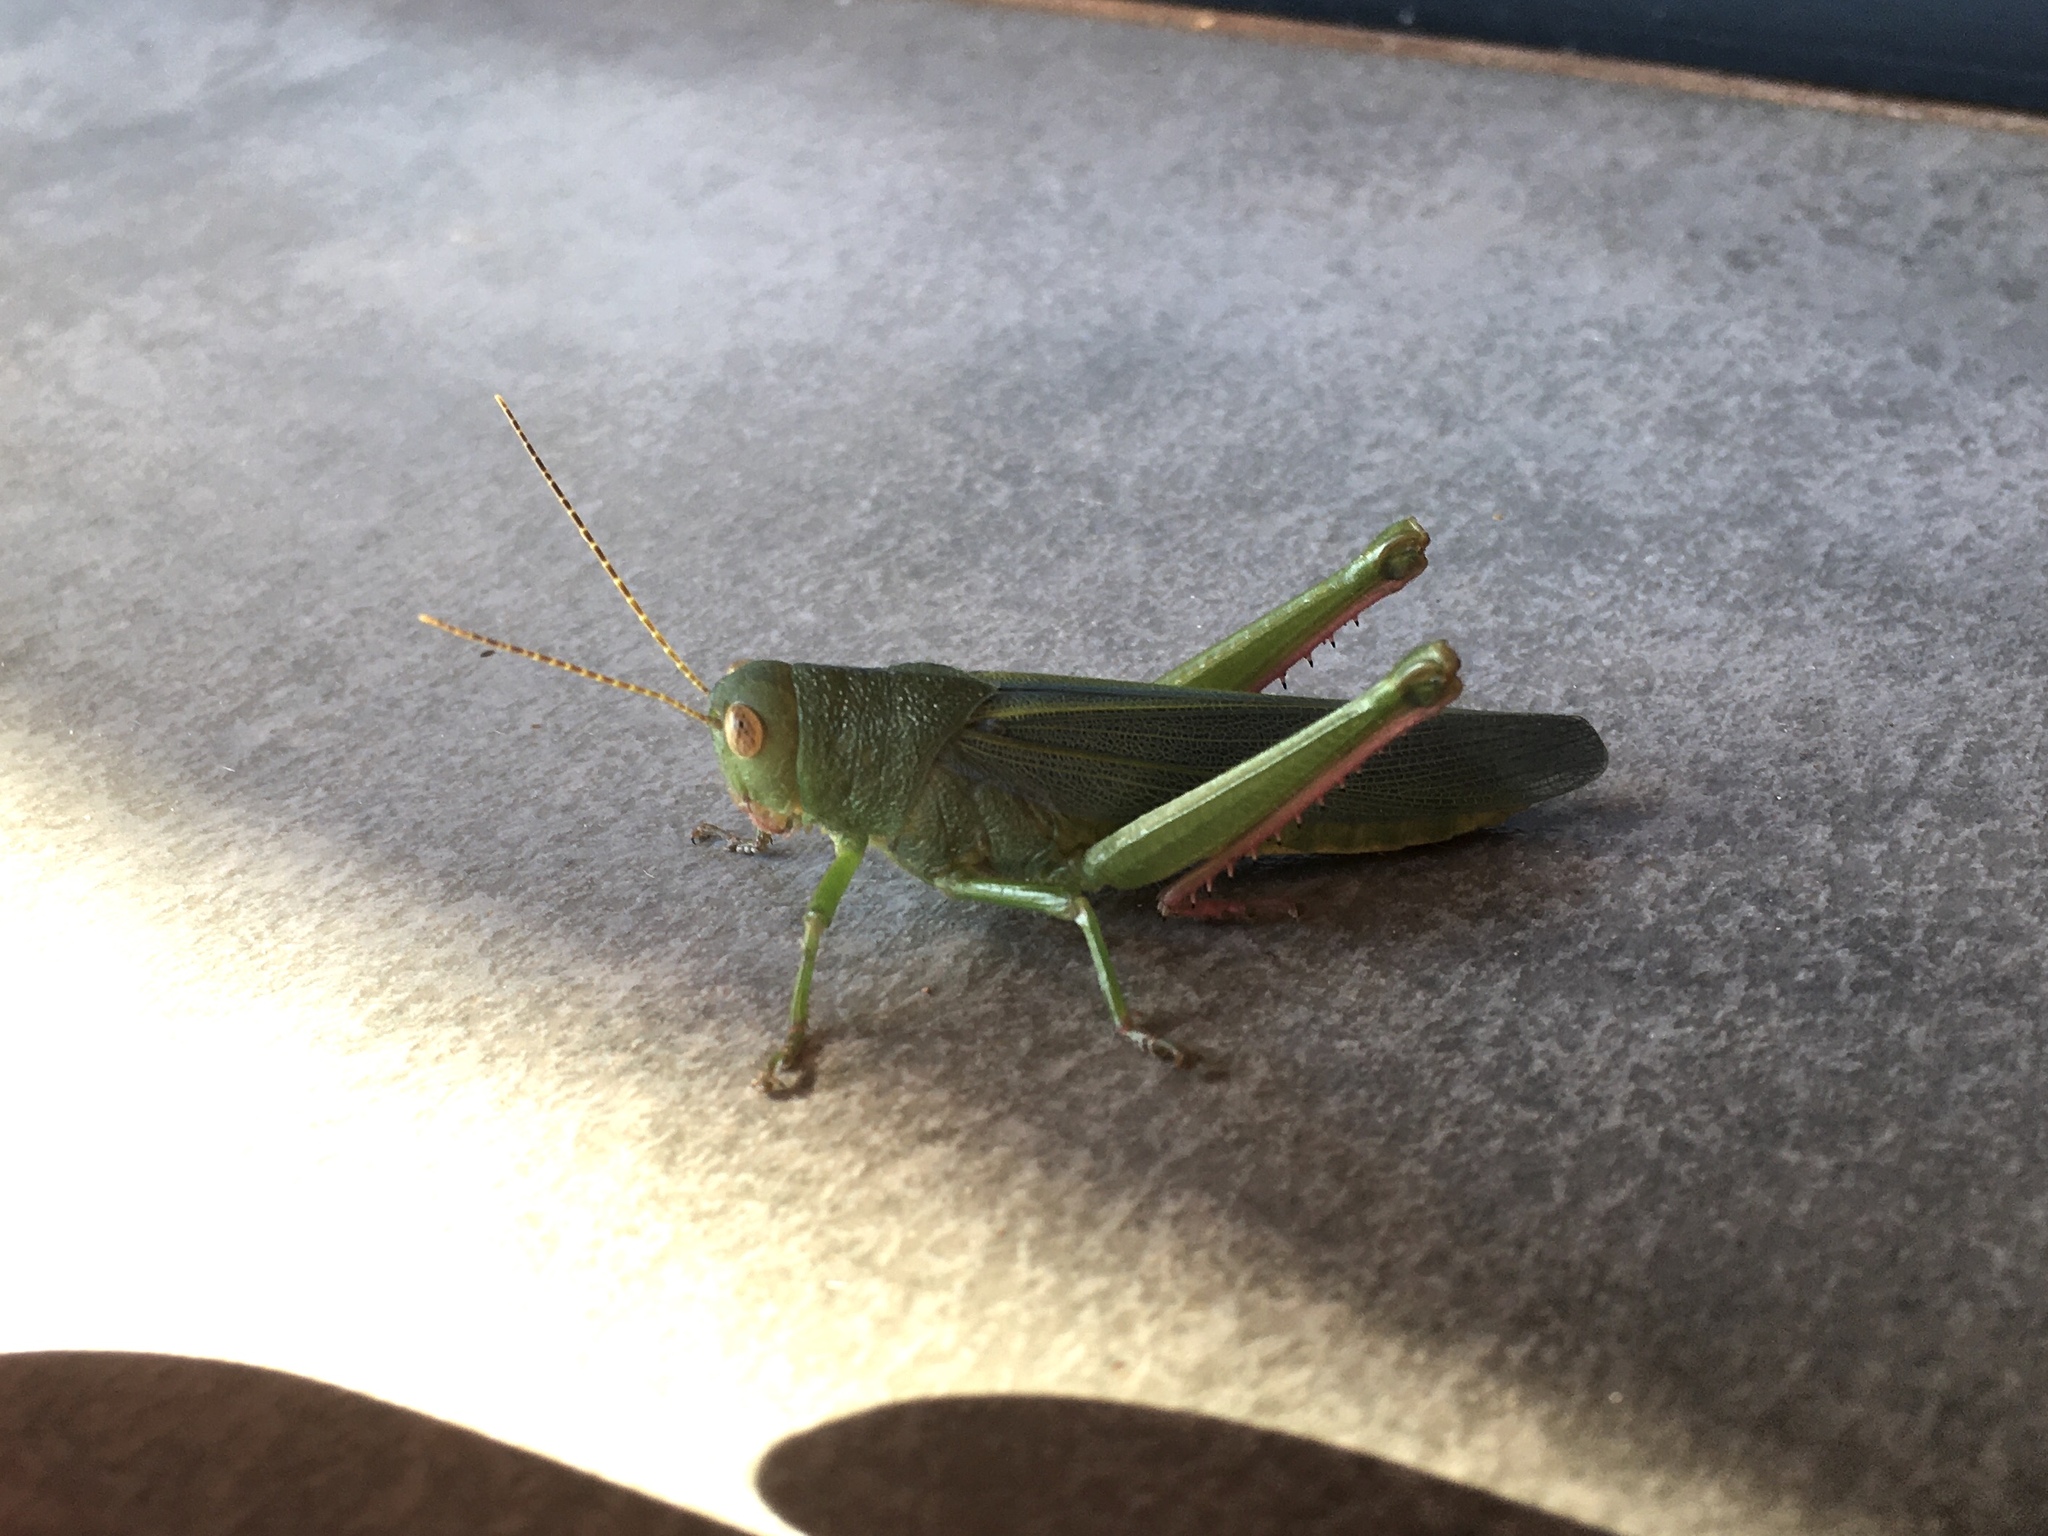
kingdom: Animalia
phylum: Arthropoda
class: Insecta
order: Orthoptera
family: Romaleidae
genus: Zoniopoda
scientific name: Zoniopoda hempeli
